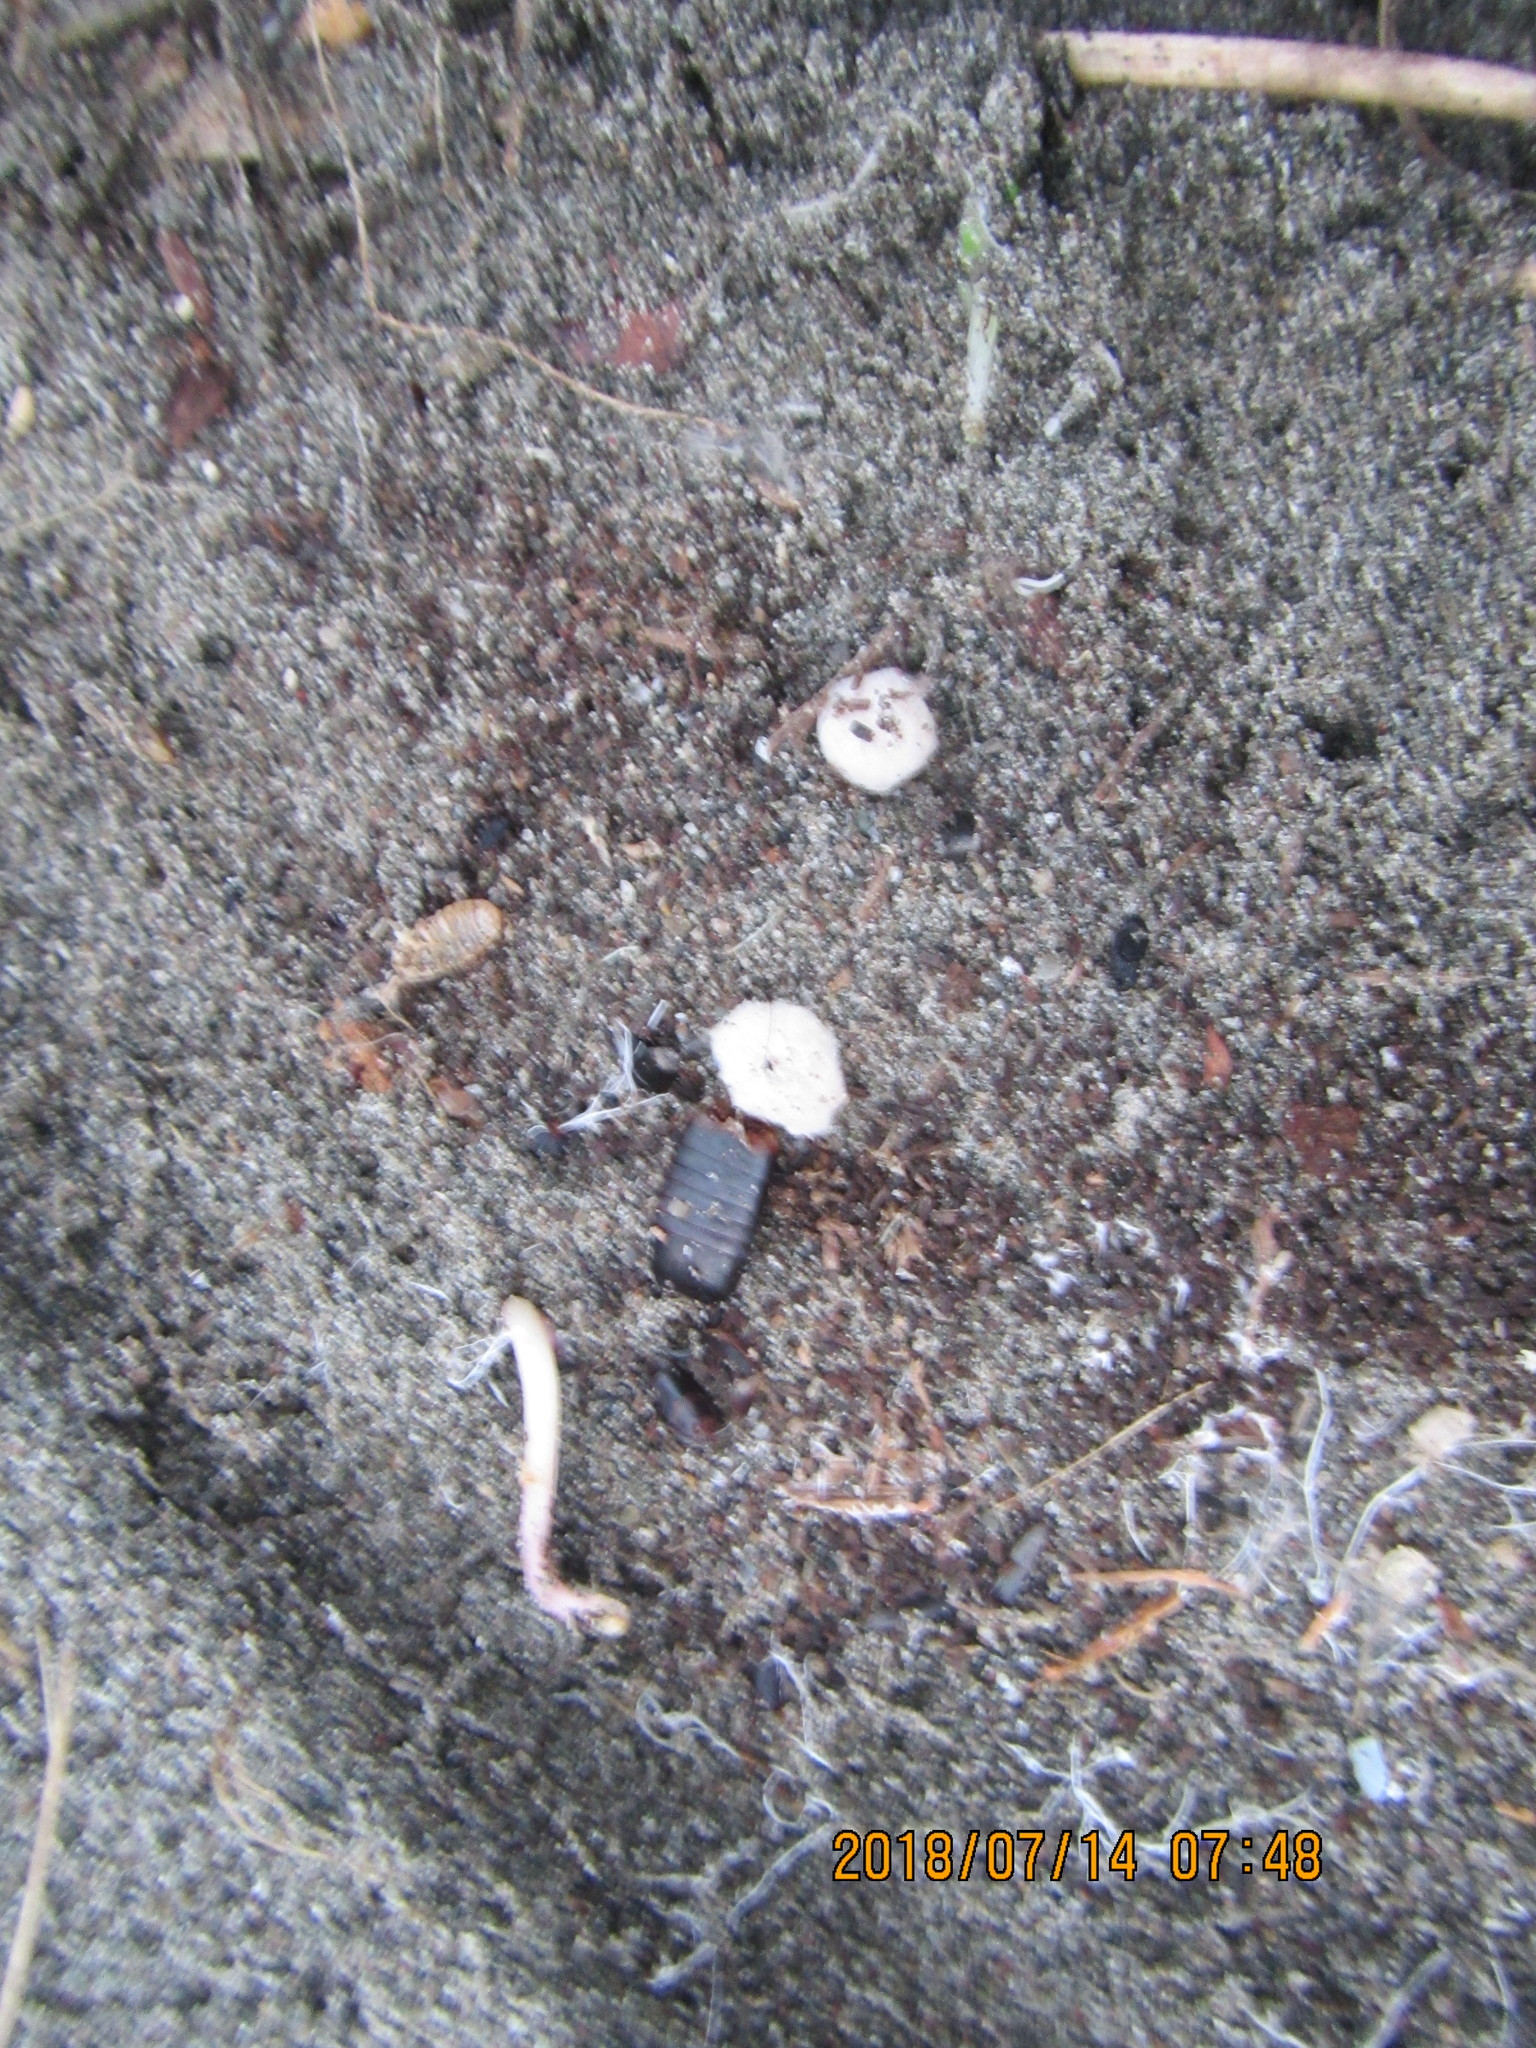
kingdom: Animalia
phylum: Arthropoda
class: Arachnida
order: Araneae
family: Theridiidae
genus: Steatoda
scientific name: Steatoda capensis
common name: Cobweb weaver
